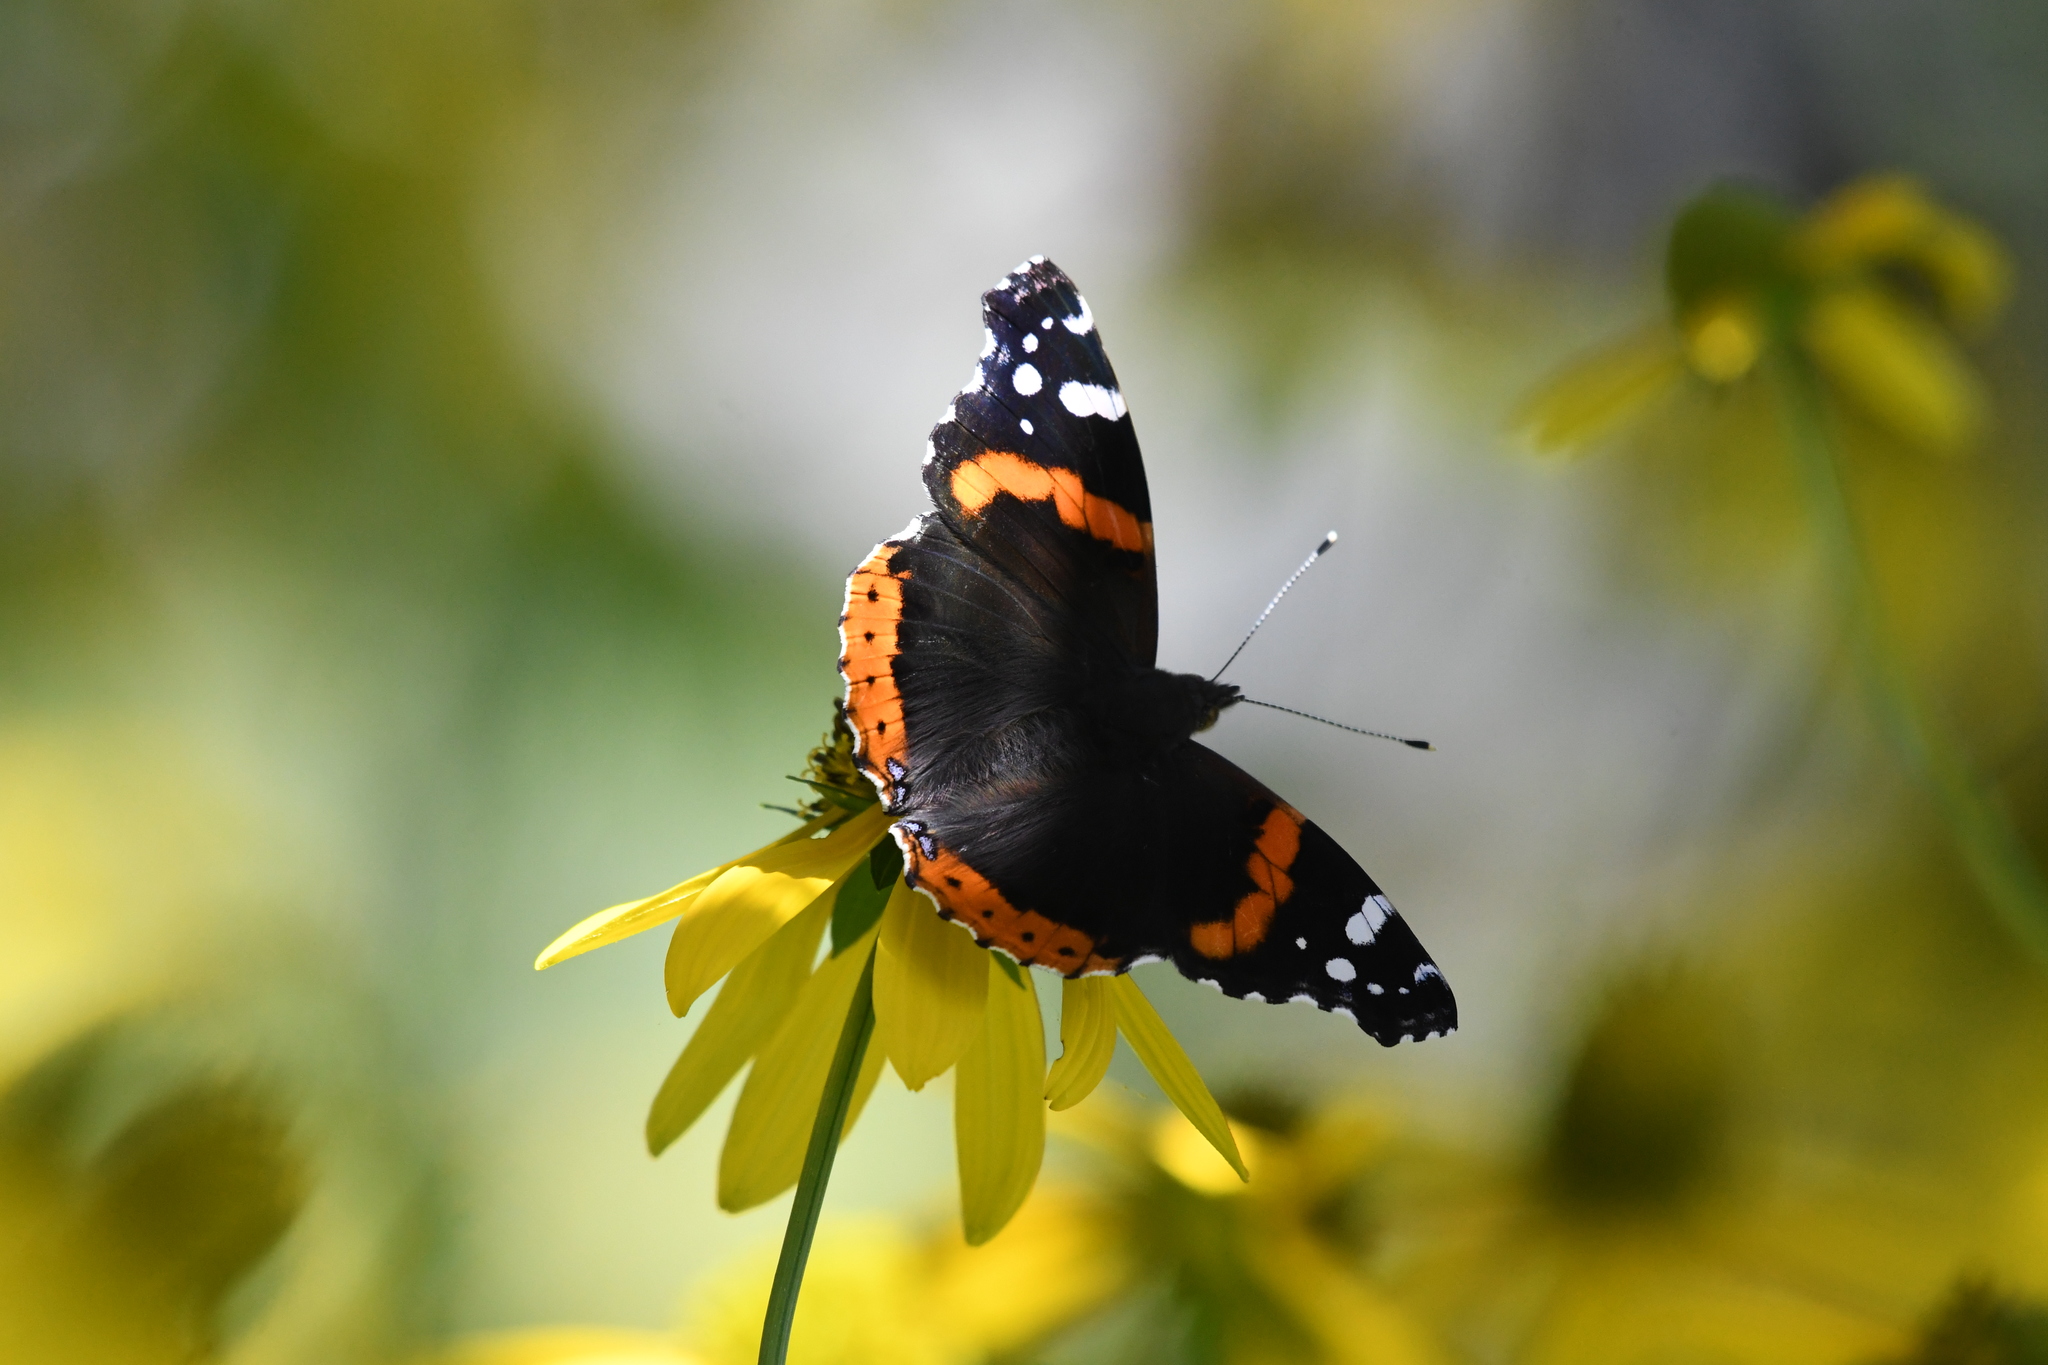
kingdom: Animalia
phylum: Arthropoda
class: Insecta
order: Lepidoptera
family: Nymphalidae
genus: Vanessa
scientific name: Vanessa atalanta
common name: Red admiral
